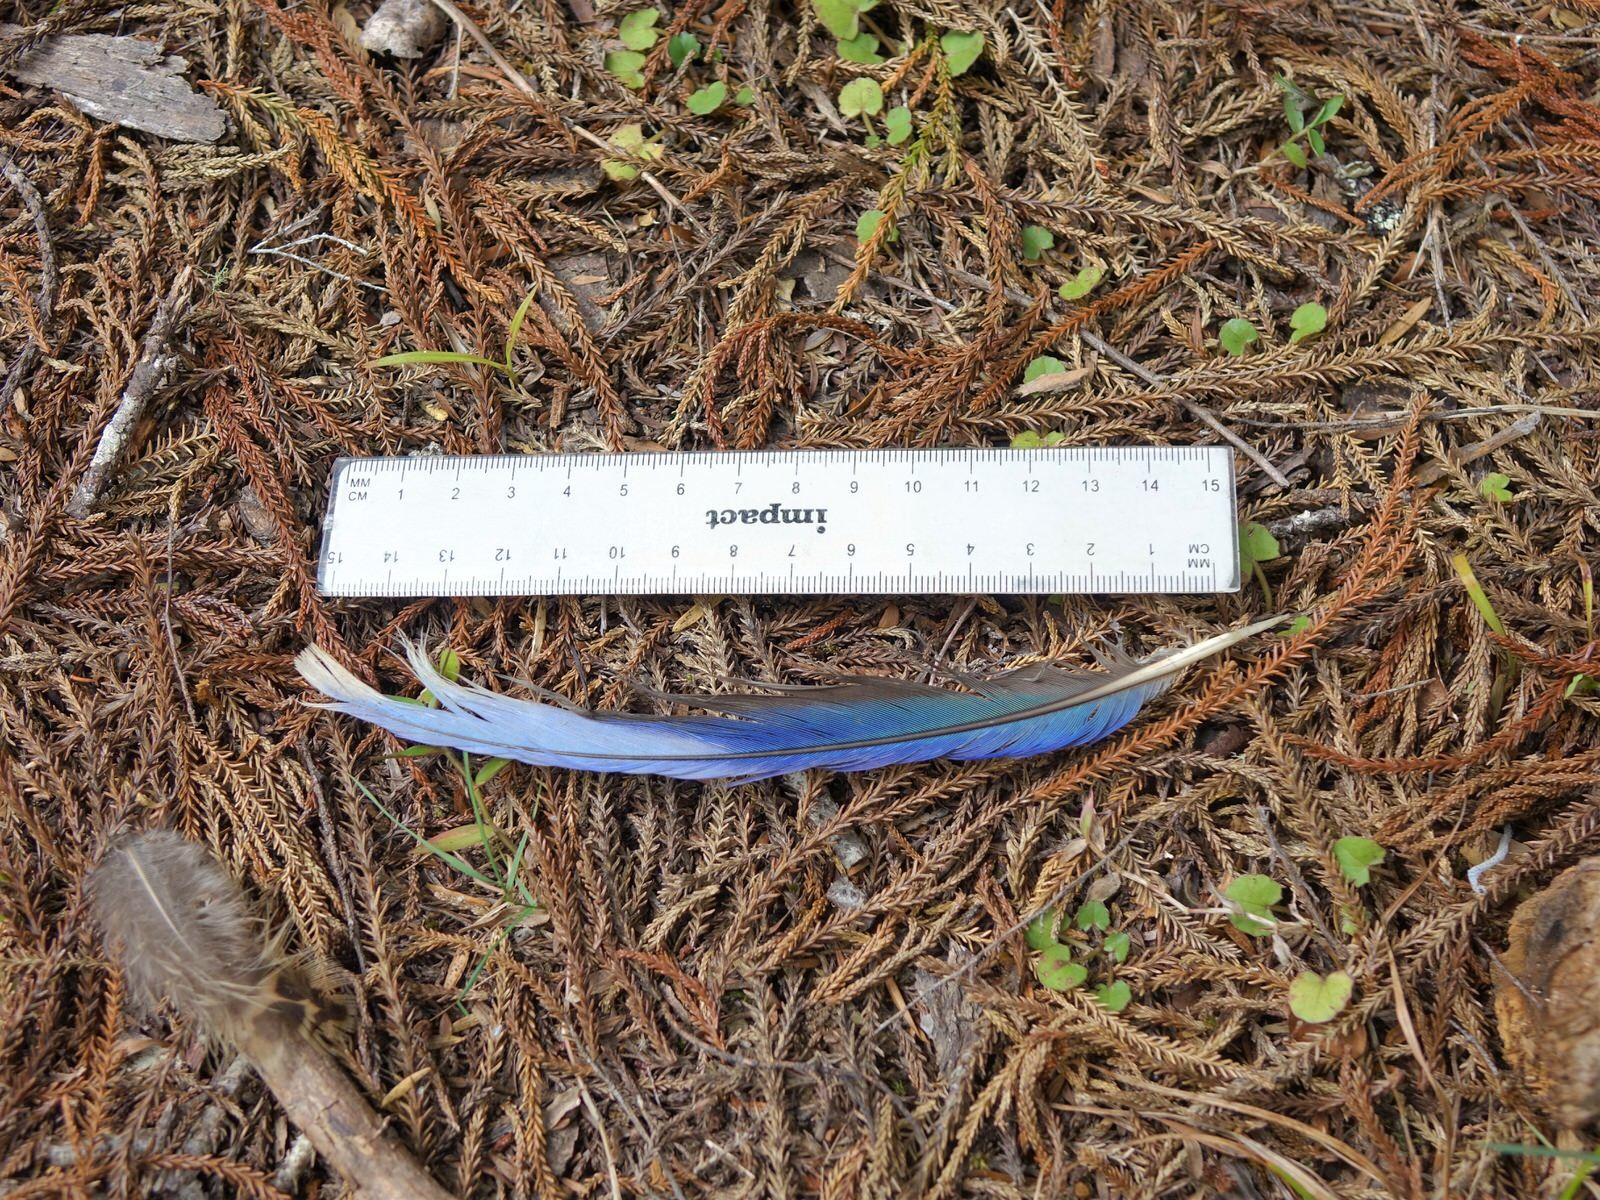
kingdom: Animalia
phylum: Chordata
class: Aves
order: Psittaciformes
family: Psittacidae
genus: Platycercus
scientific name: Platycercus eximius
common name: Eastern rosella
